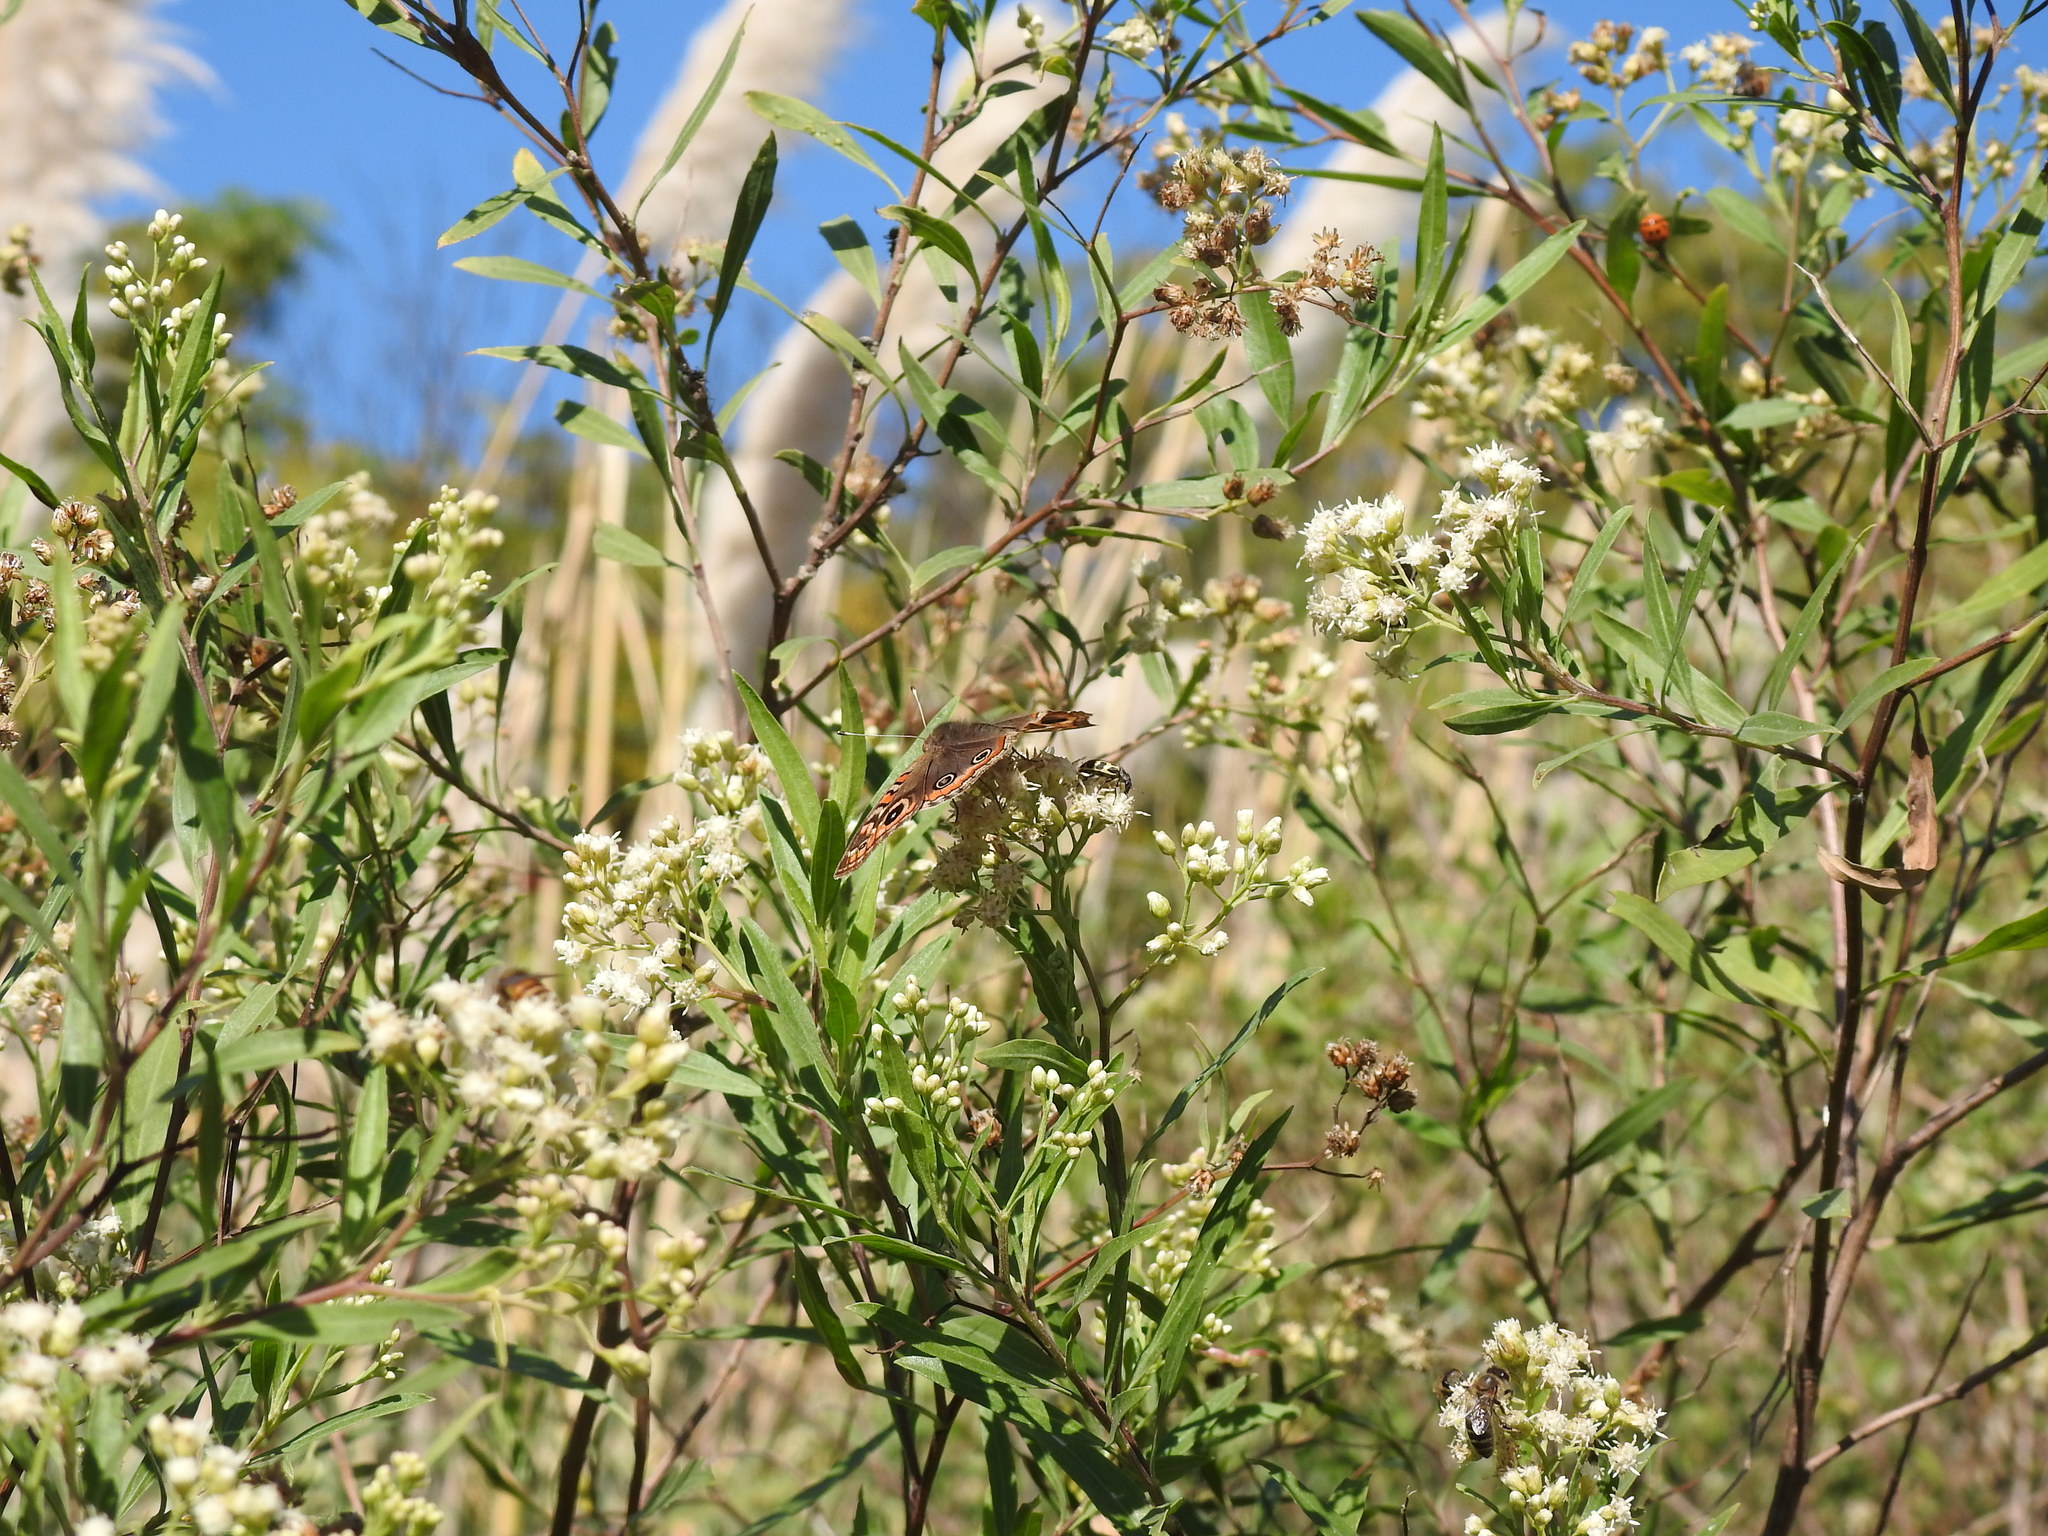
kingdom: Animalia
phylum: Arthropoda
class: Insecta
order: Lepidoptera
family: Nymphalidae
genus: Junonia
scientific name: Junonia lavinia
